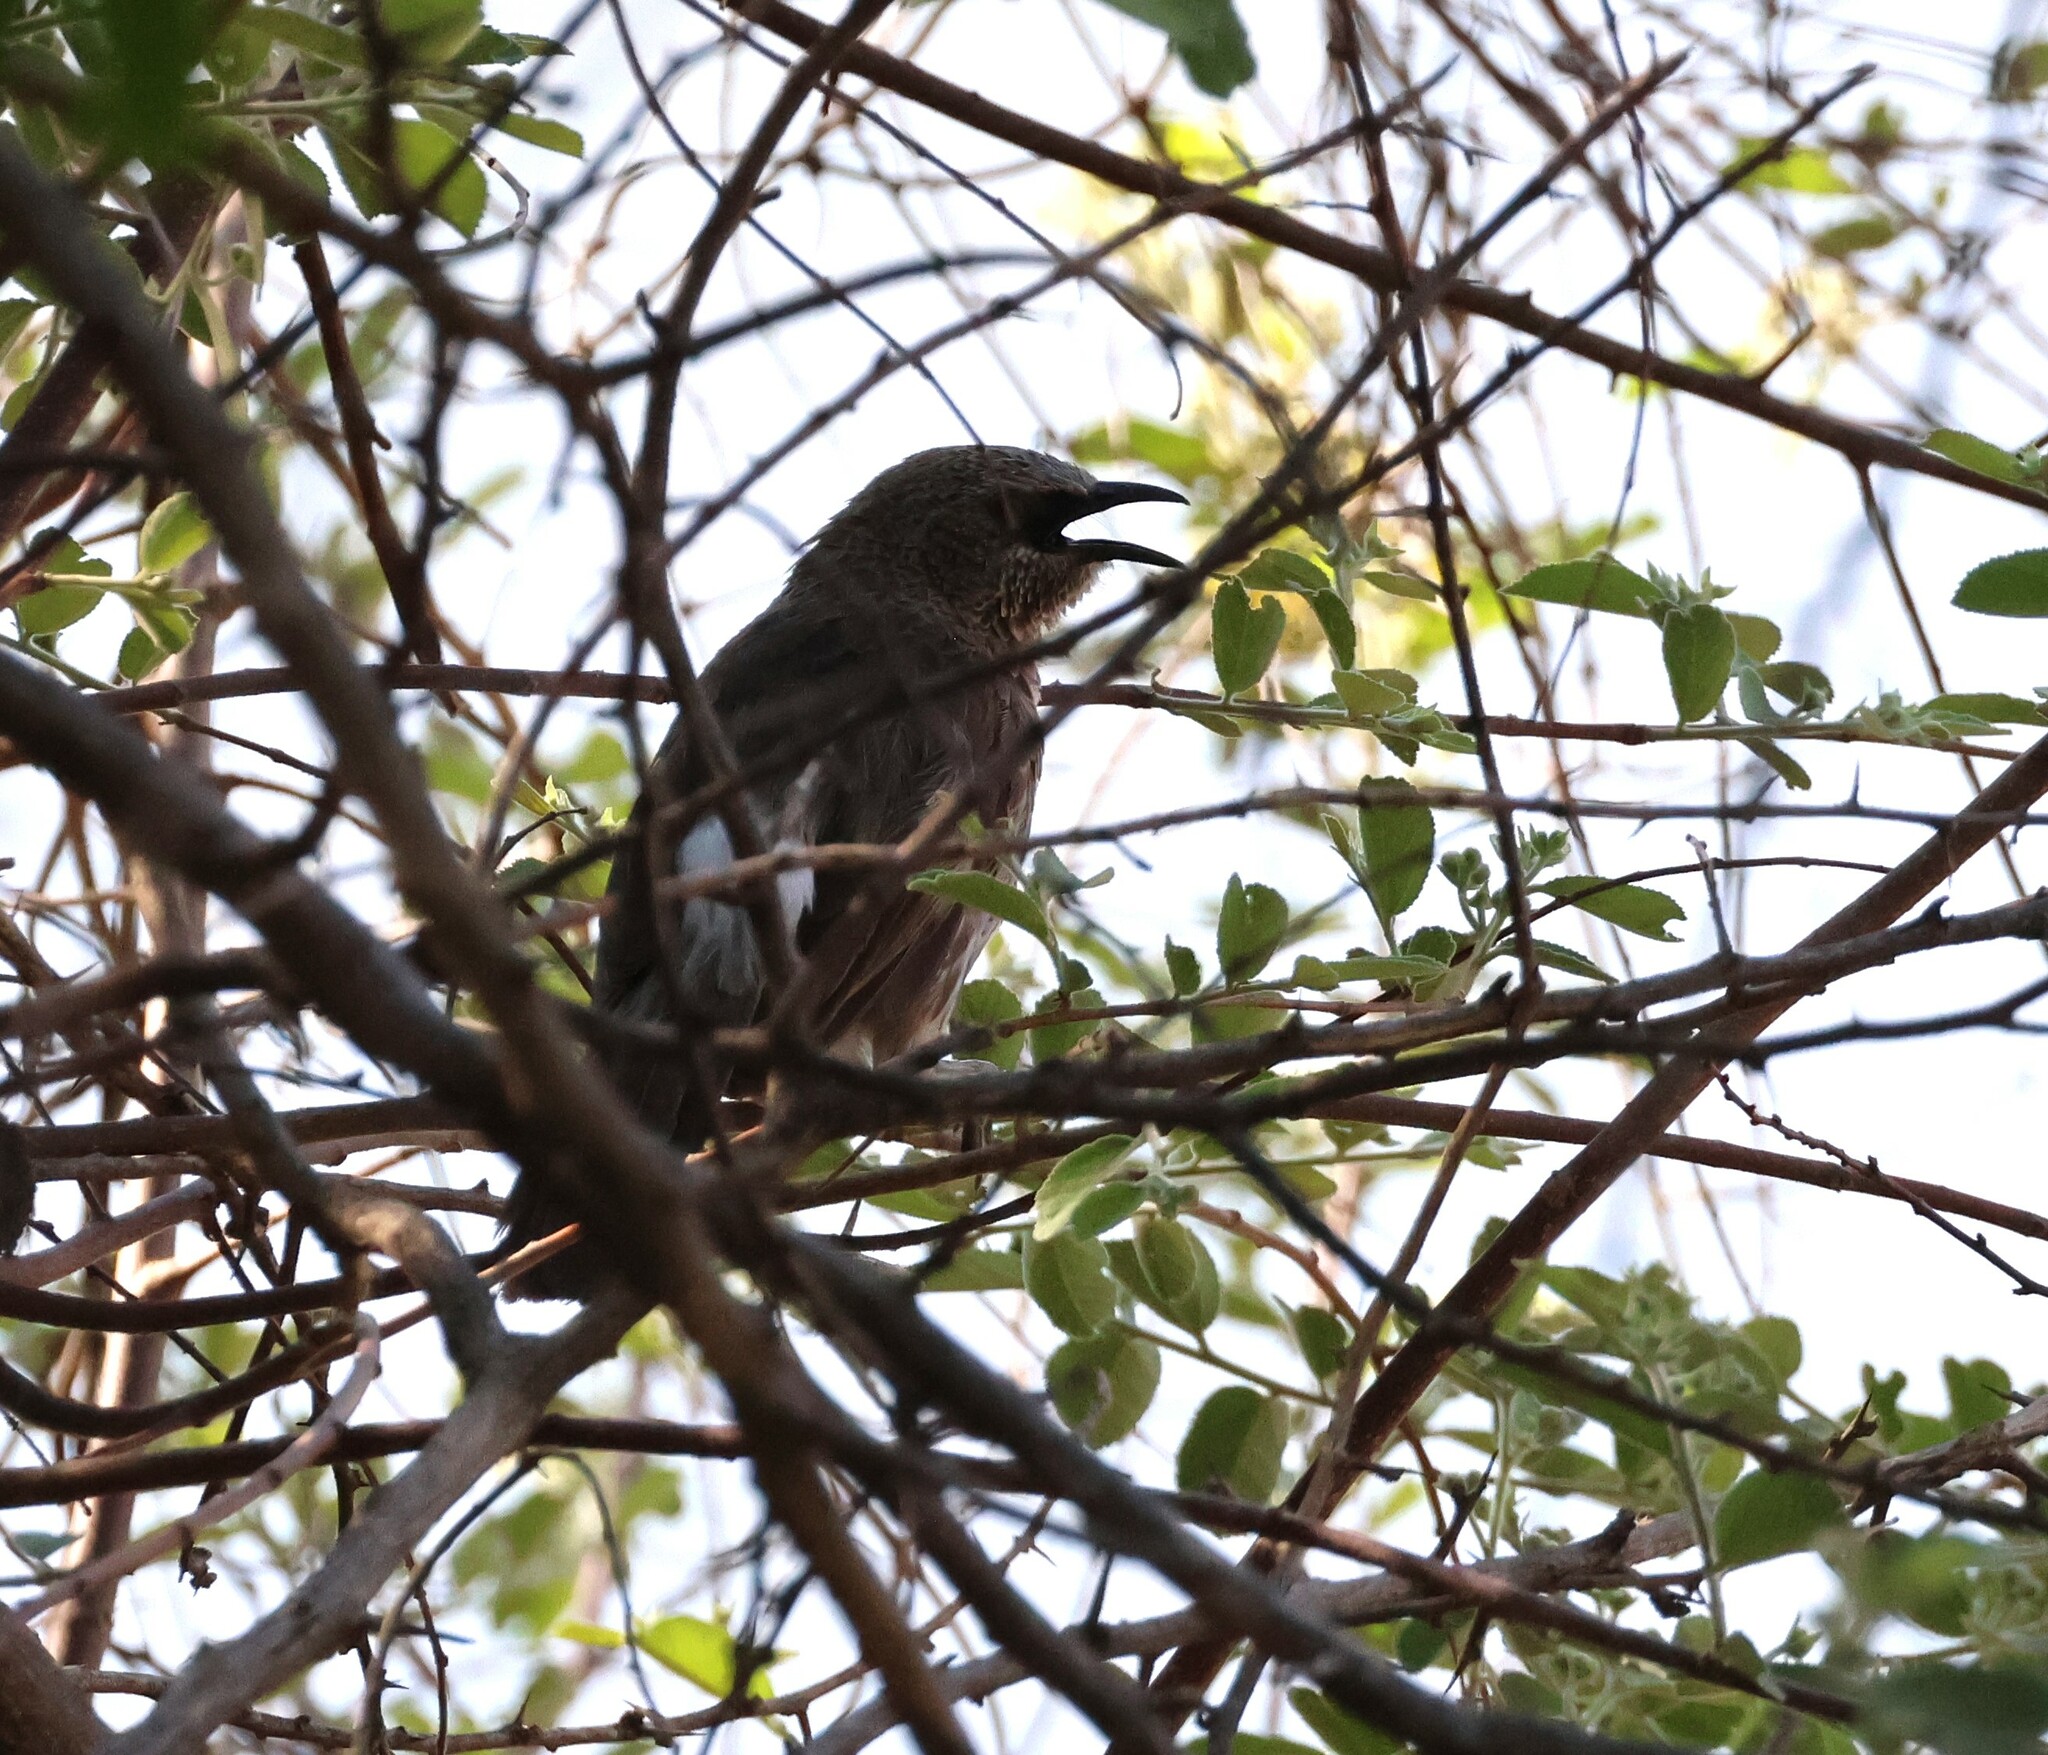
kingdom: Animalia
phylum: Chordata
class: Aves
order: Passeriformes
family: Leiothrichidae
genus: Turdoides
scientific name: Turdoides hartlaubii
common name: Hartlaub's babbler
